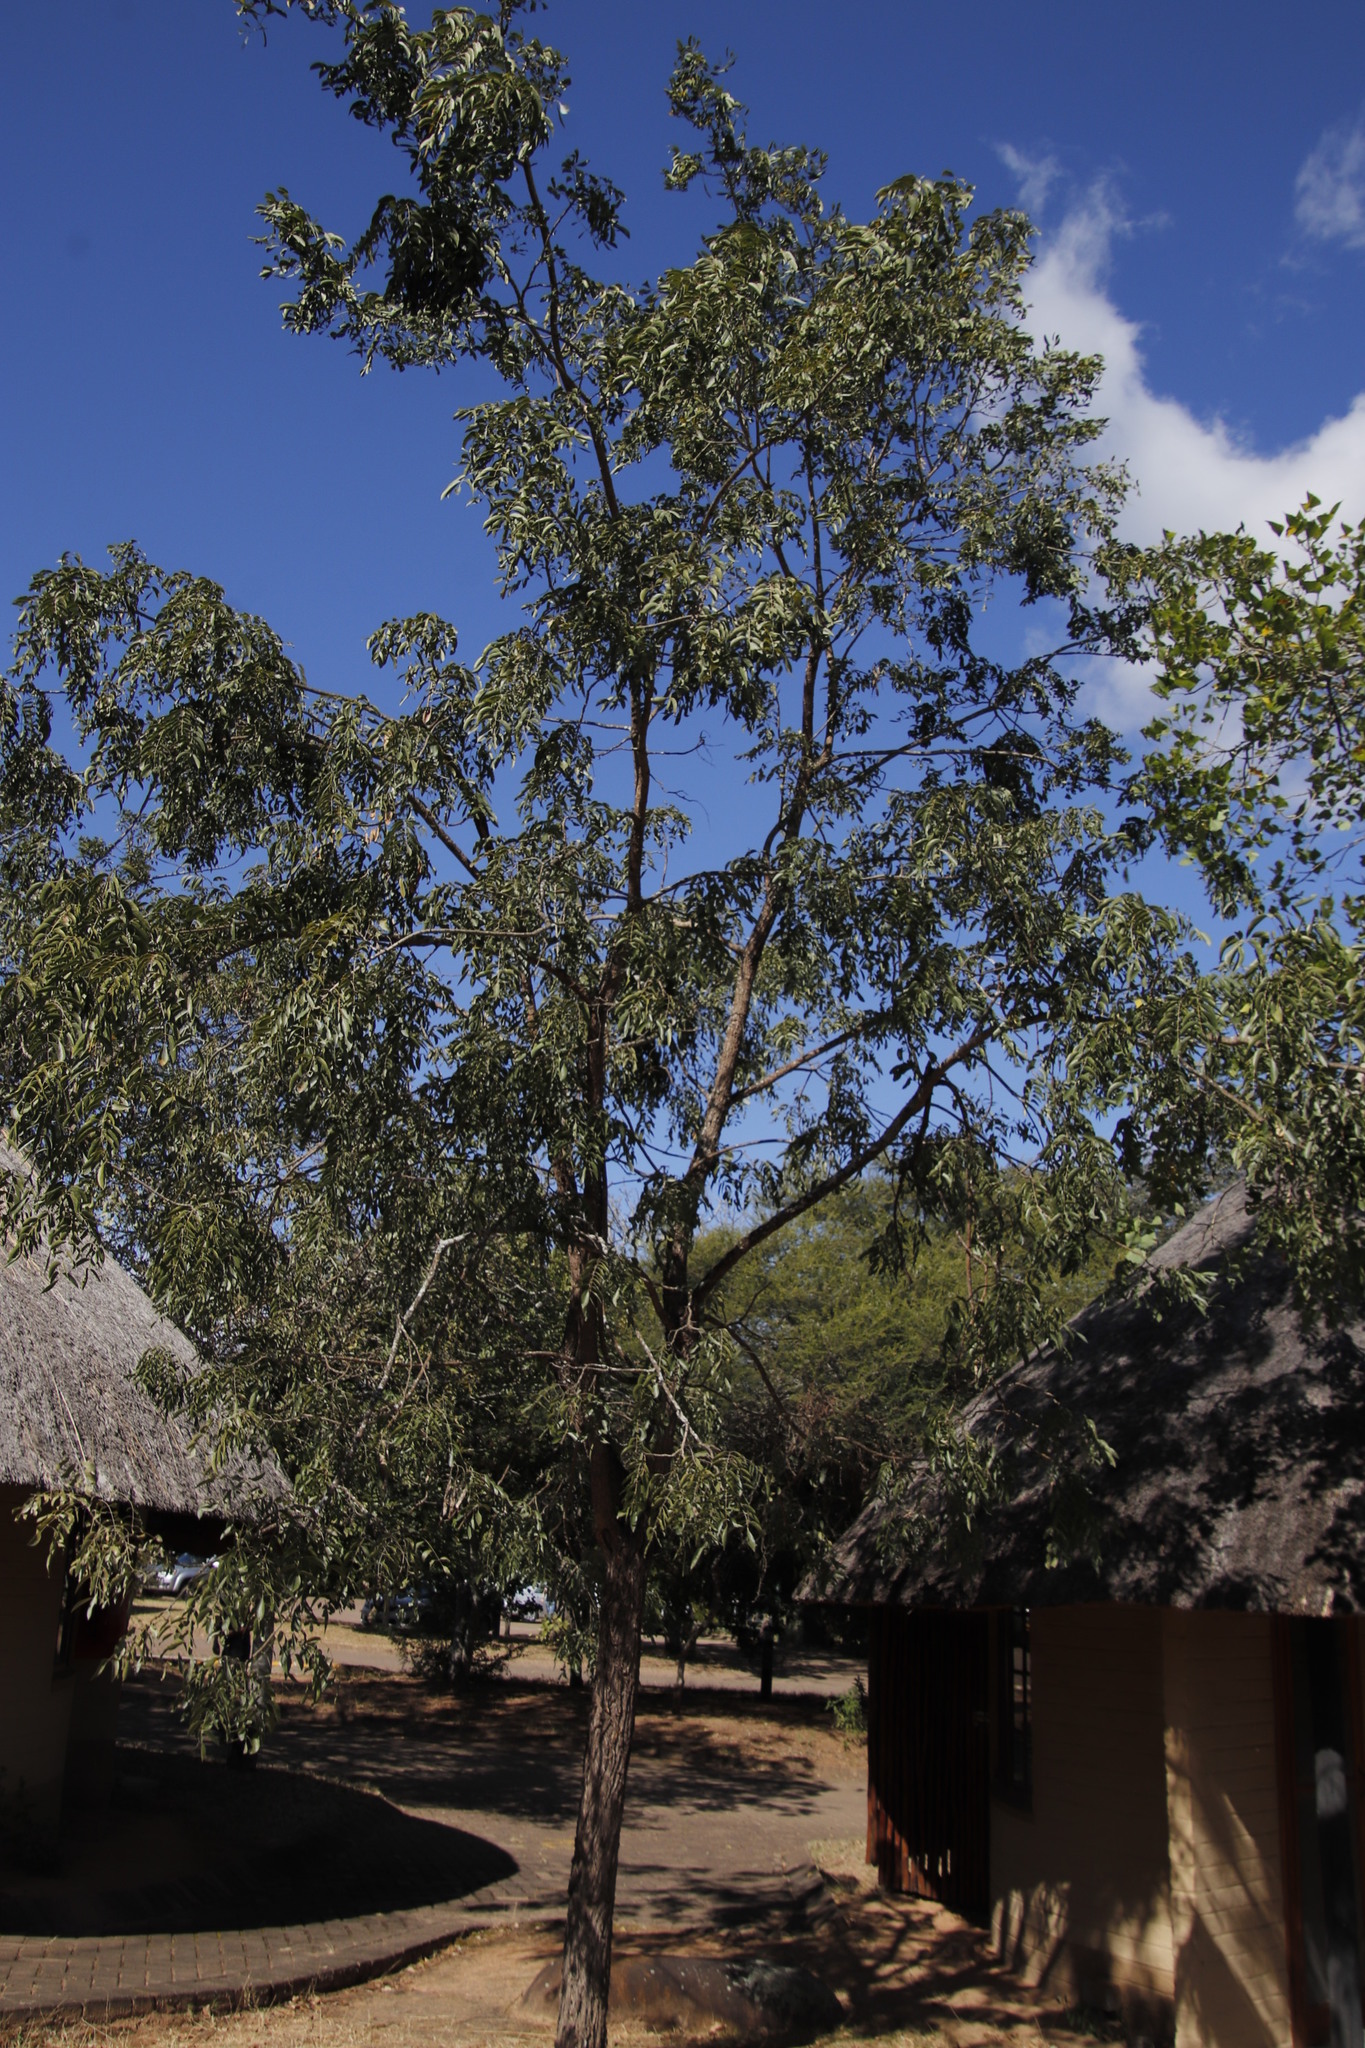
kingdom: Plantae
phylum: Tracheophyta
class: Magnoliopsida
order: Fabales
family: Fabaceae
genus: Bolusanthus
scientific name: Bolusanthus speciosus
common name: Tree wisteria
